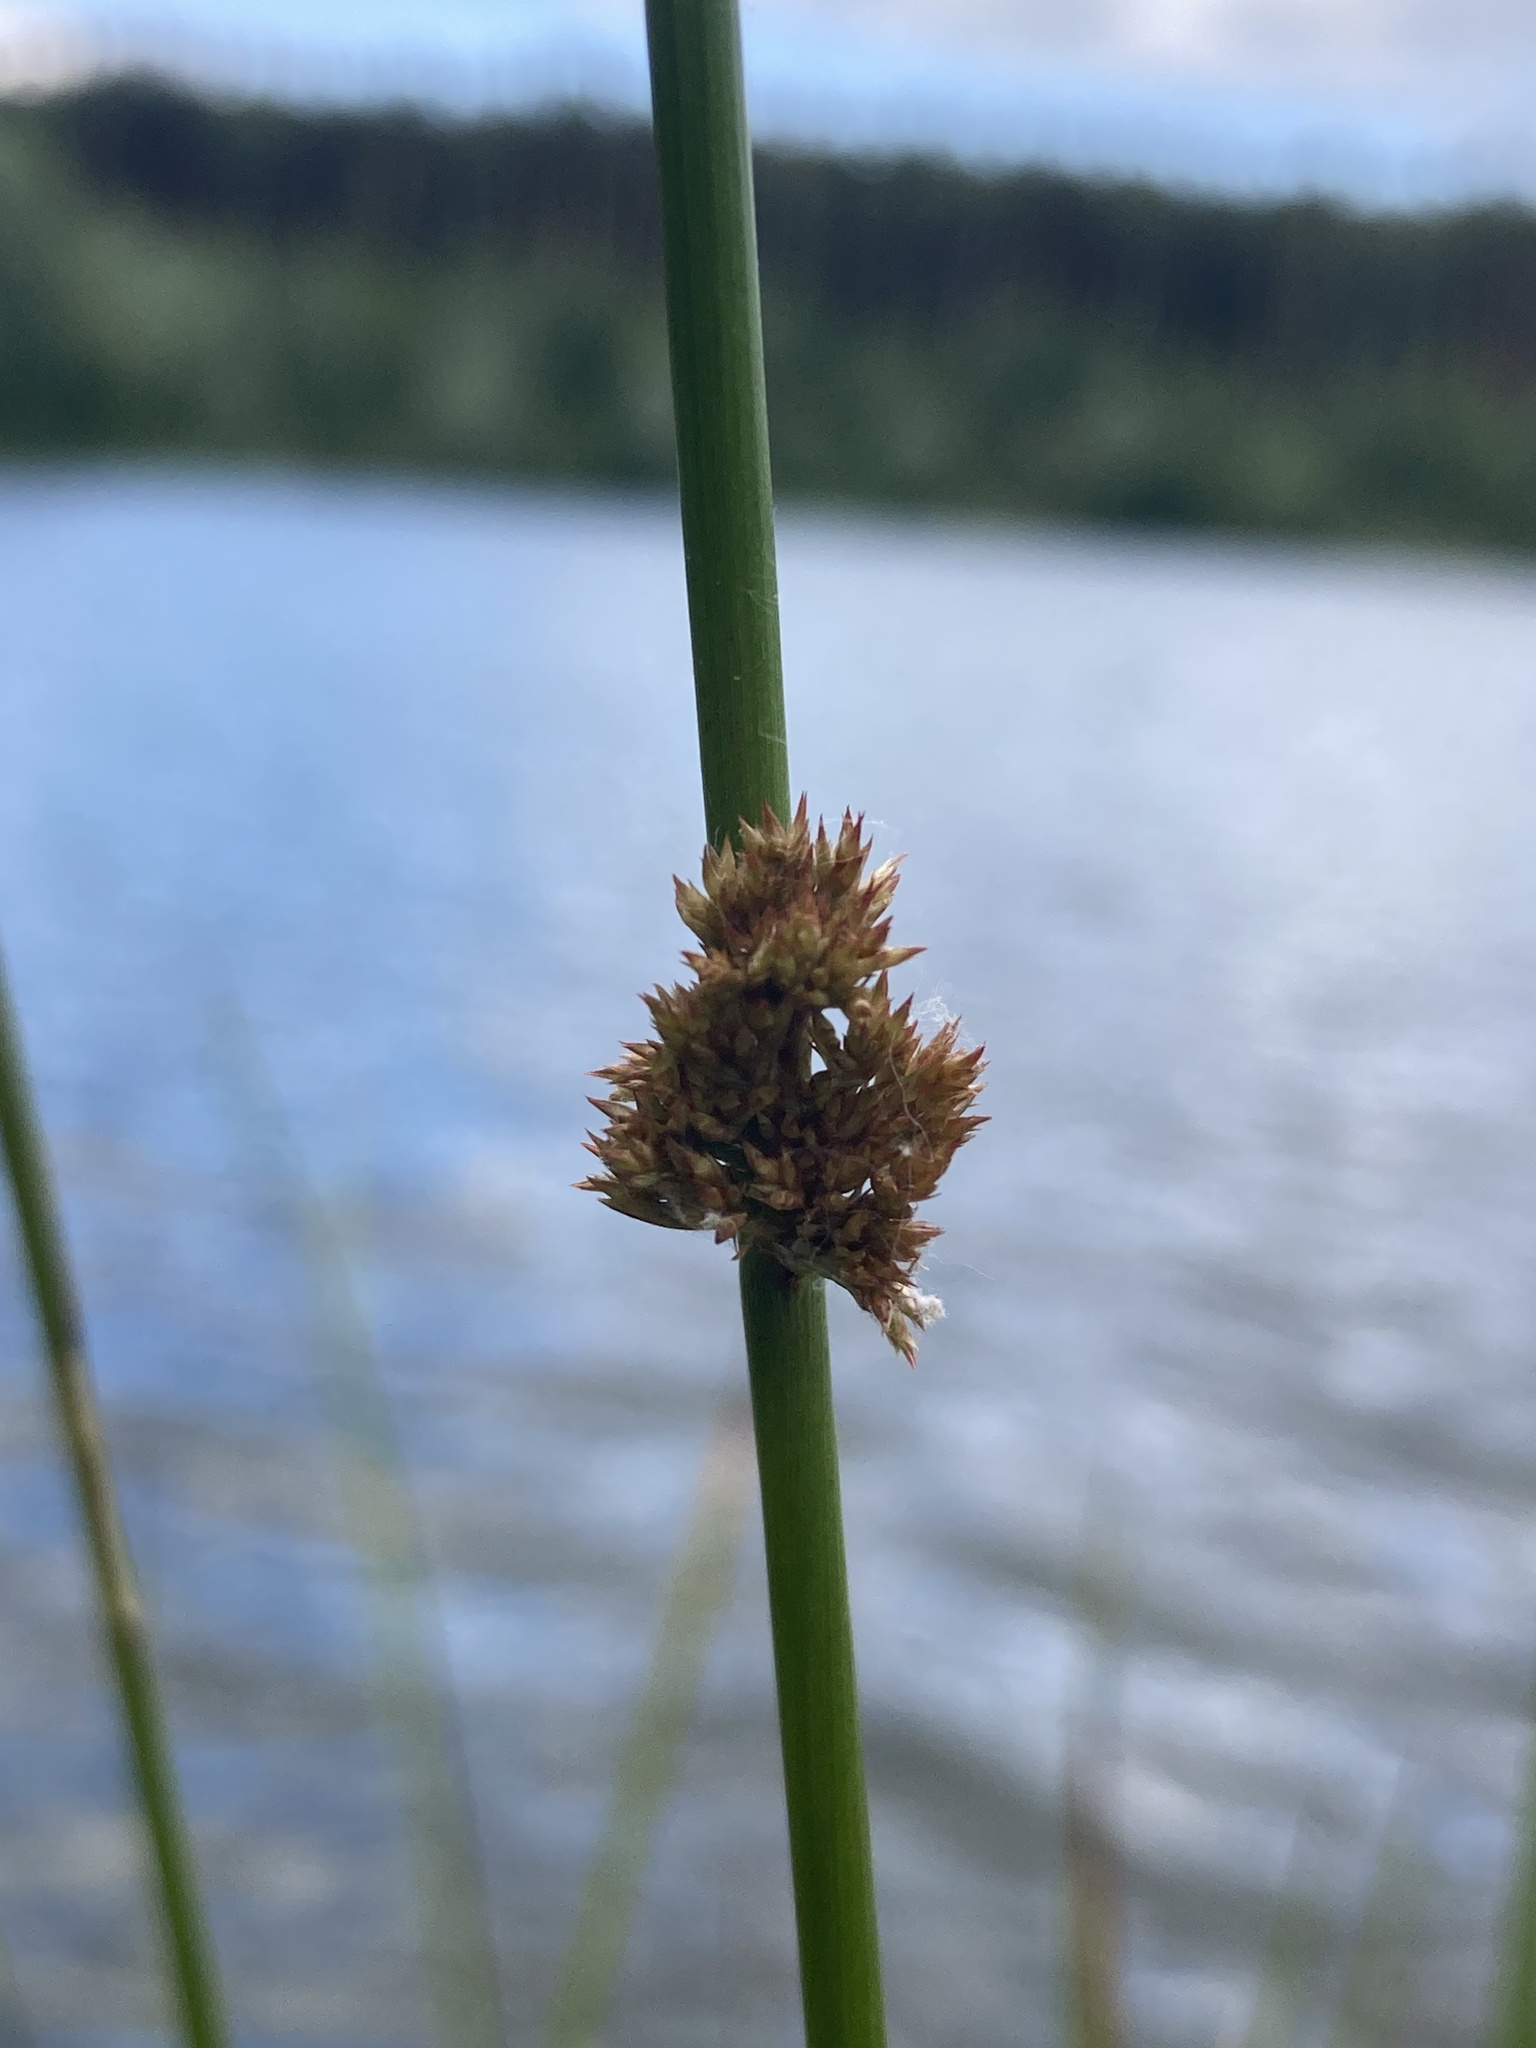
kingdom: Plantae
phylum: Tracheophyta
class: Liliopsida
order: Poales
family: Juncaceae
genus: Juncus
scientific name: Juncus effusus
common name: Soft rush
